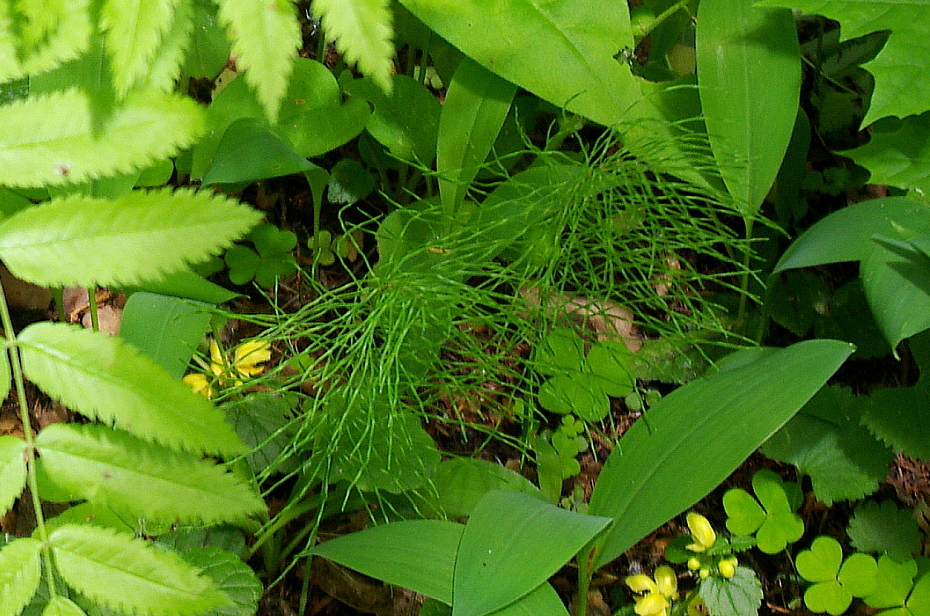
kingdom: Plantae
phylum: Tracheophyta
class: Polypodiopsida
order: Equisetales
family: Equisetaceae
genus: Equisetum
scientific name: Equisetum pratense
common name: Meadow horsetail
